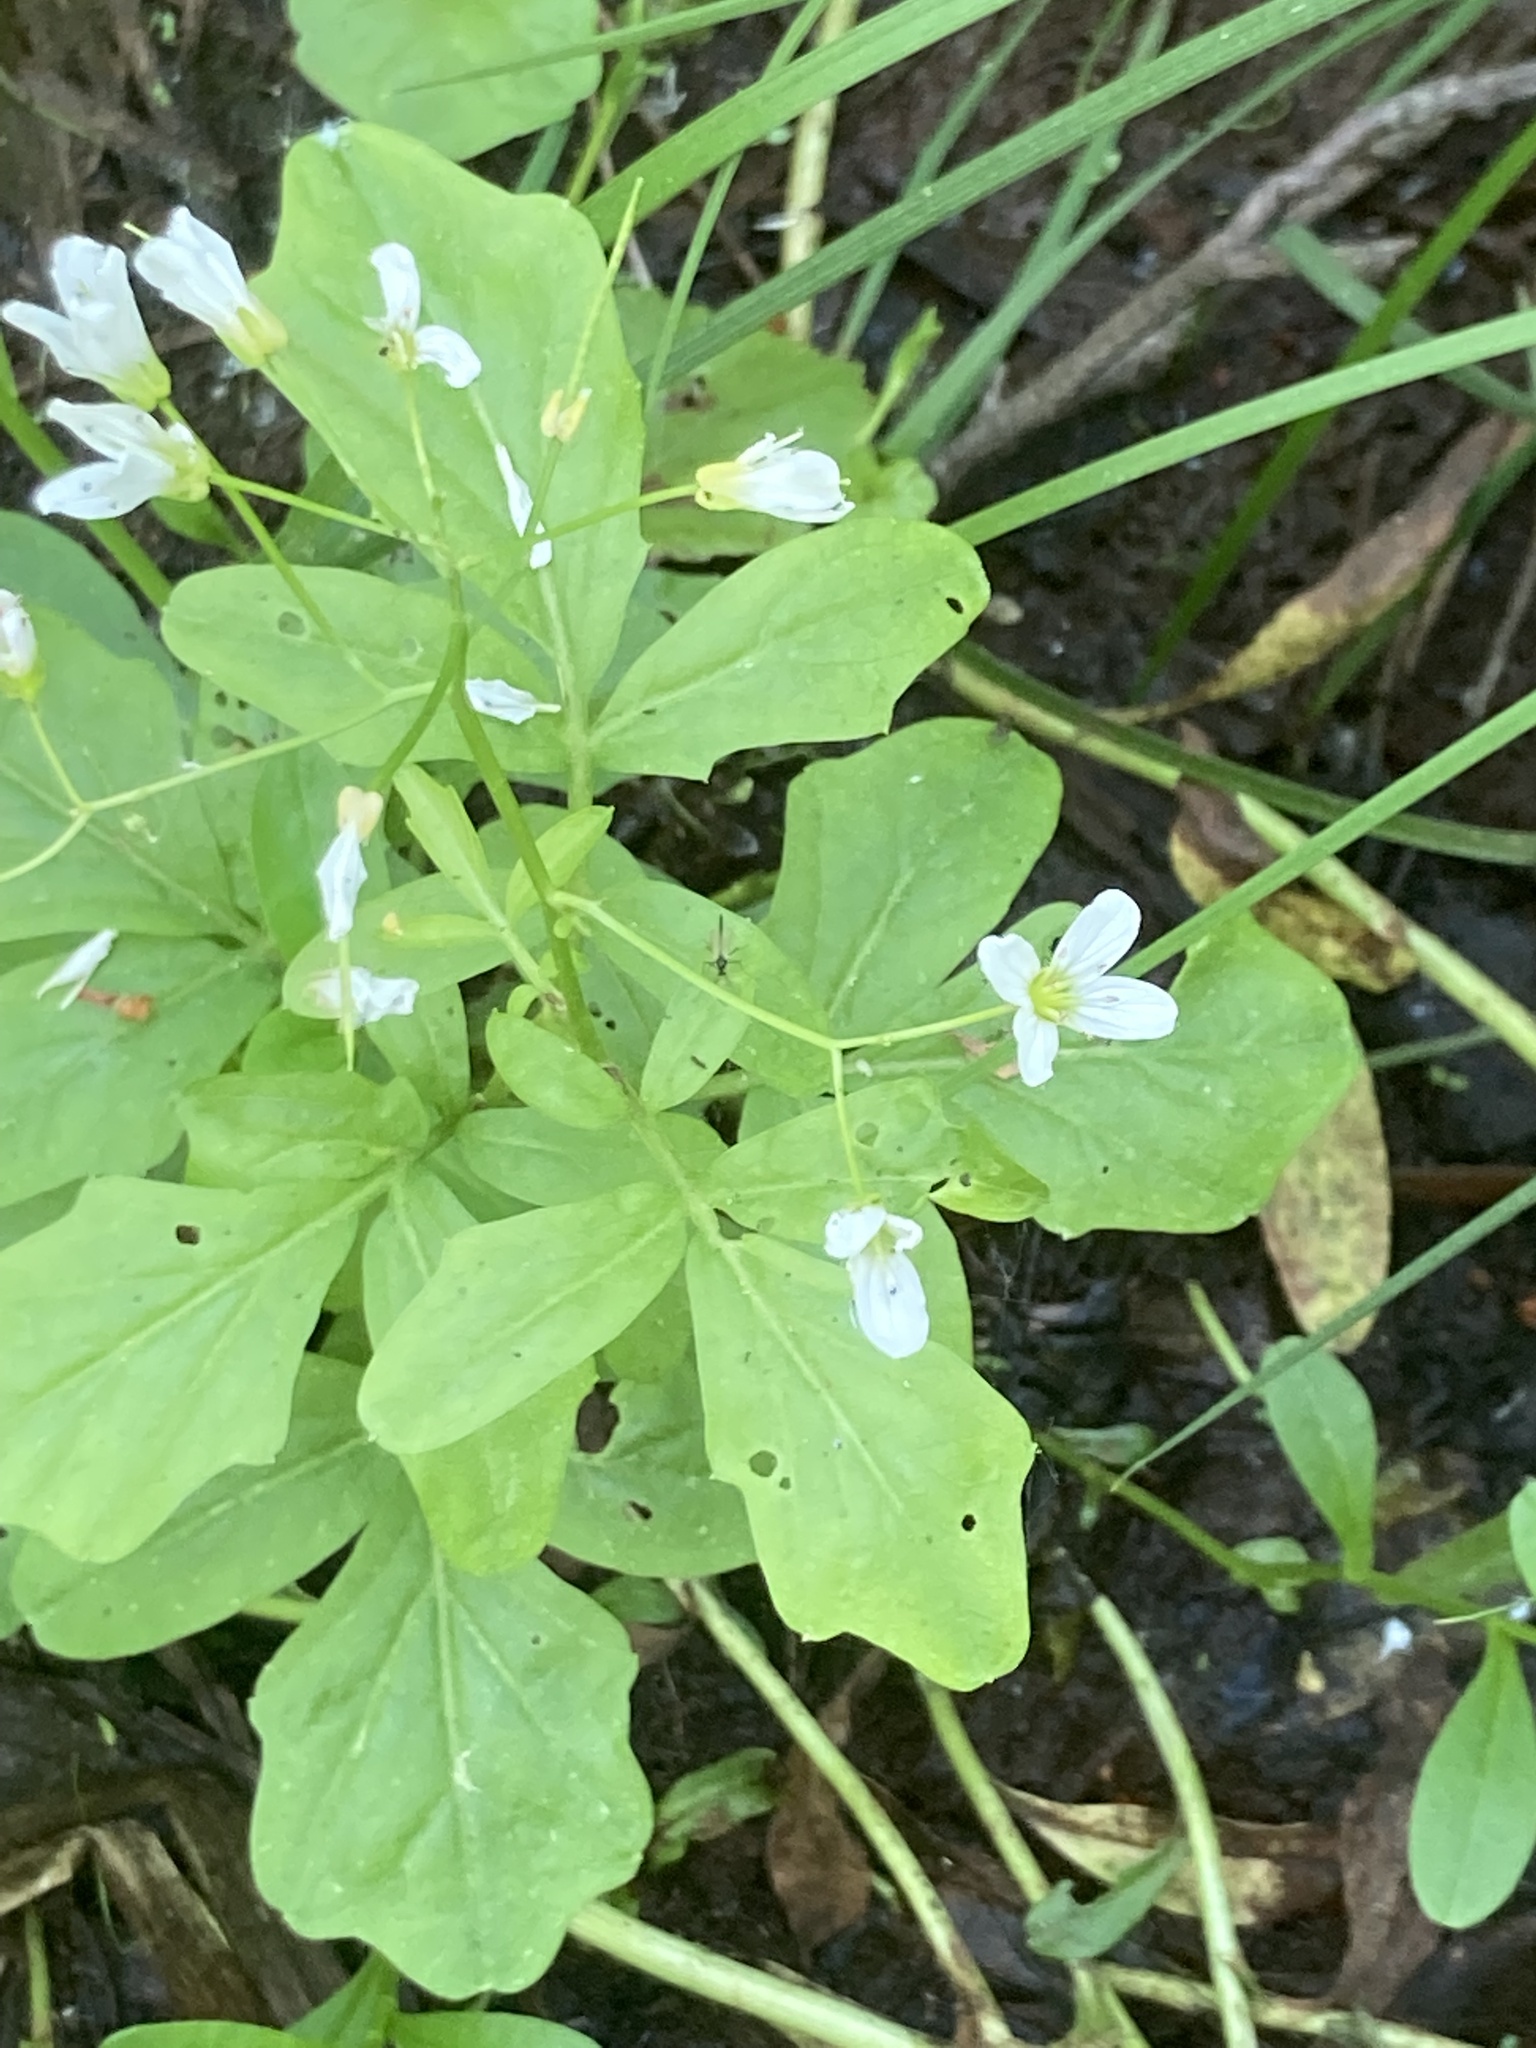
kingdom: Plantae
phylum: Tracheophyta
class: Magnoliopsida
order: Brassicales
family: Brassicaceae
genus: Cardamine
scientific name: Cardamine amara
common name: Large bitter-cress
